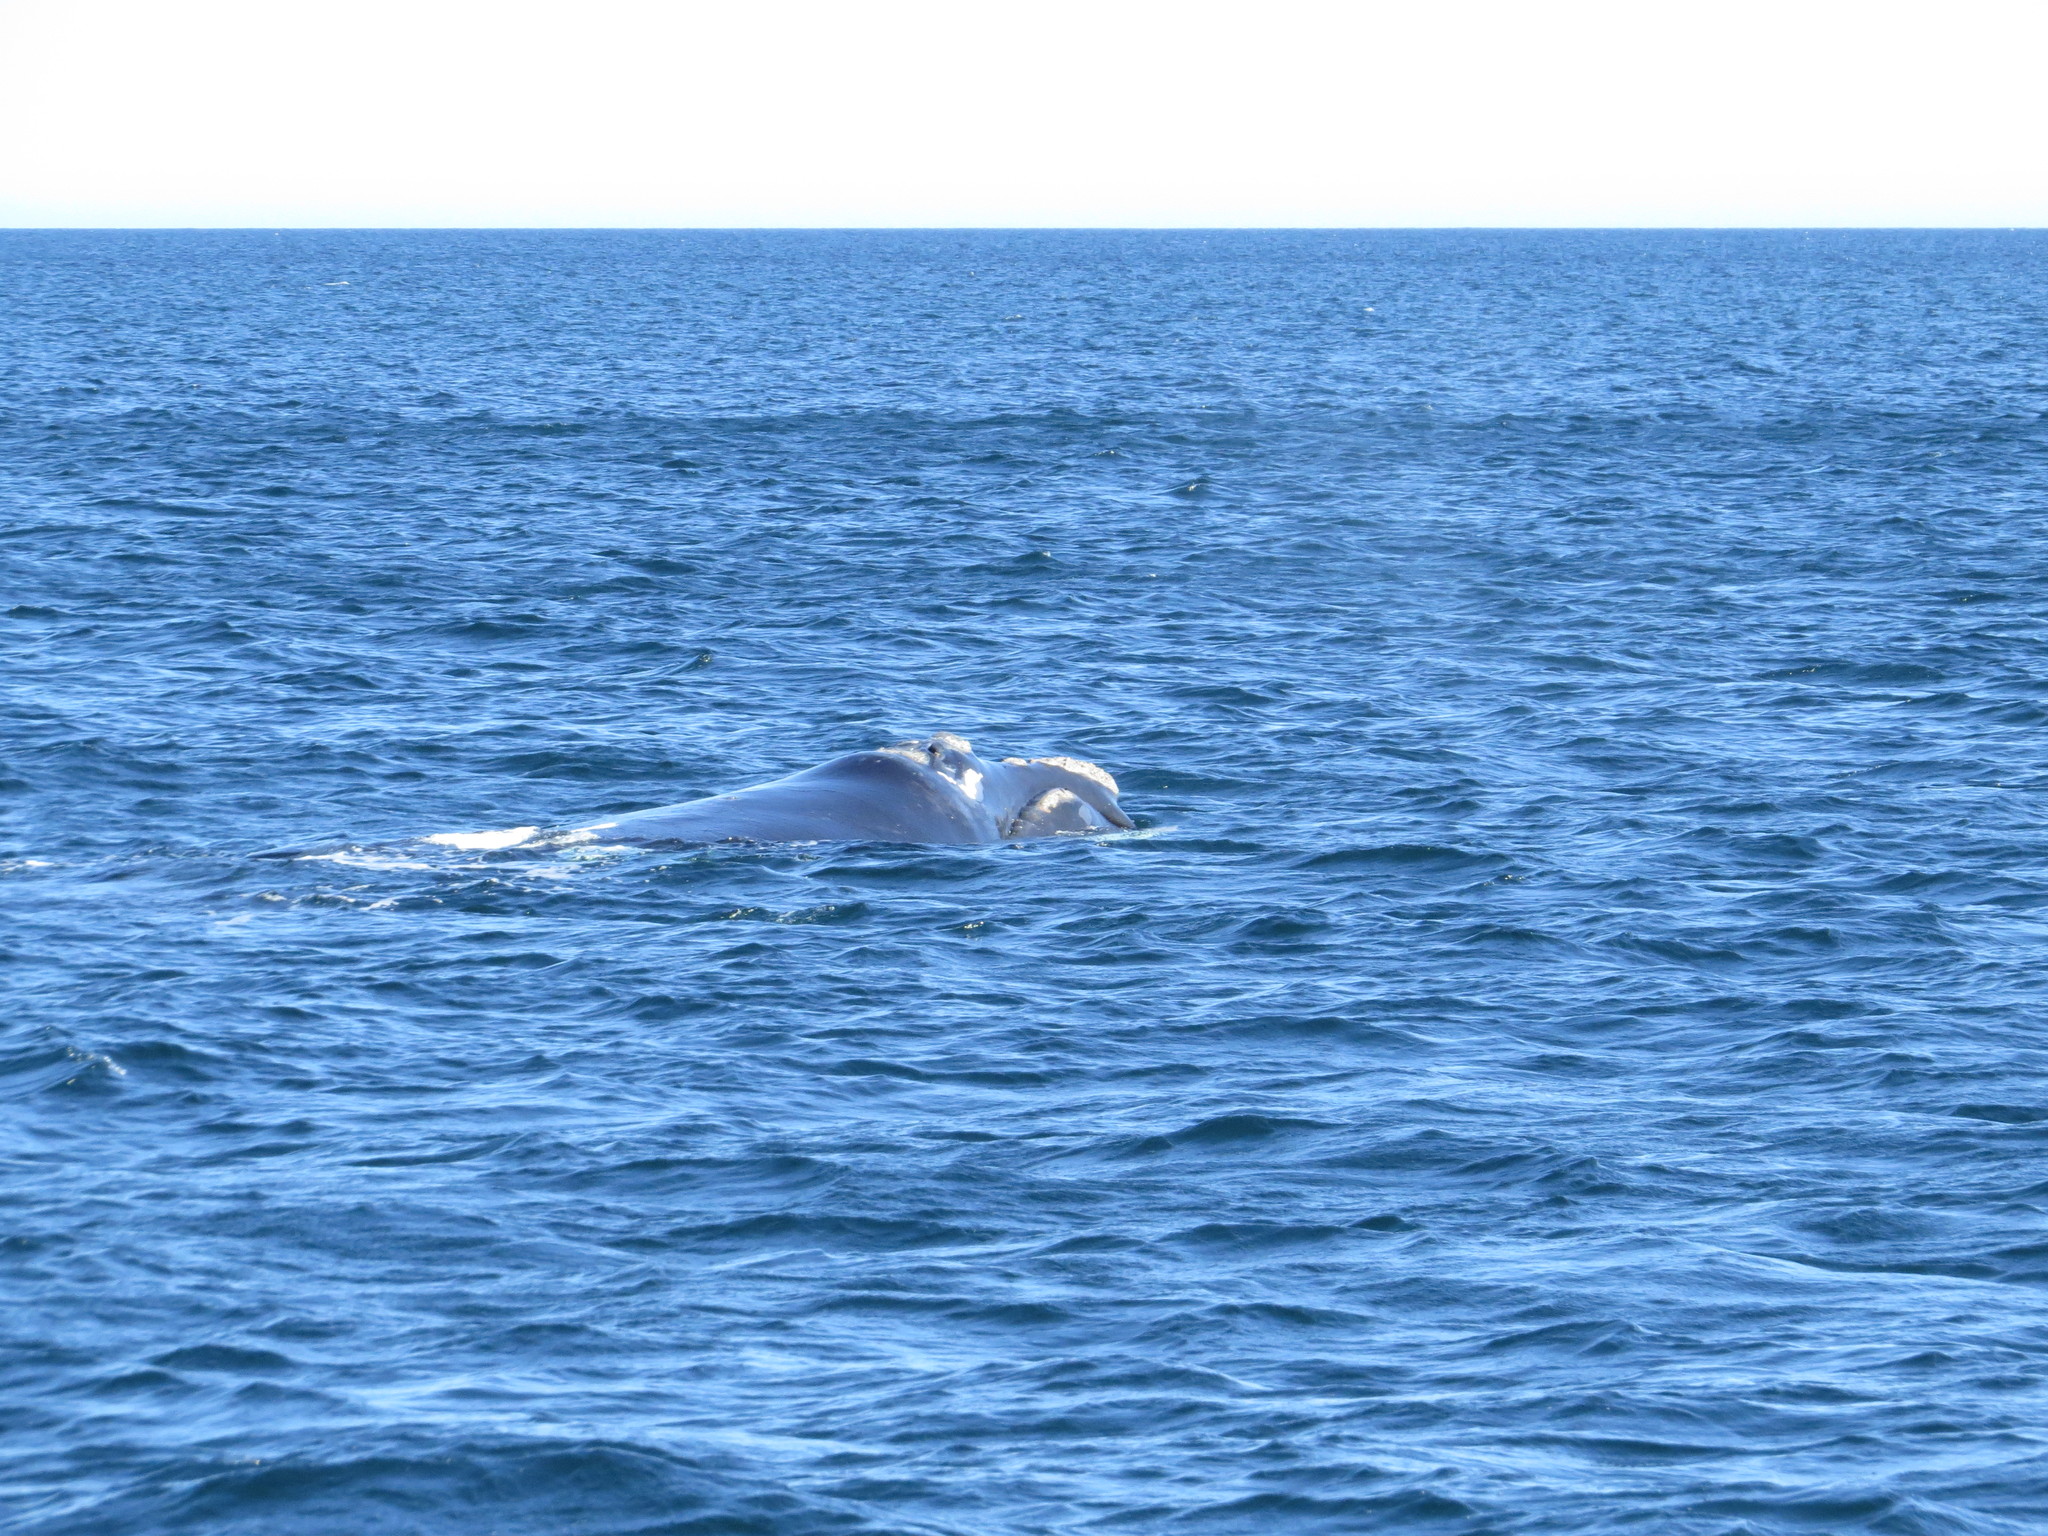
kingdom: Animalia
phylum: Chordata
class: Mammalia
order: Cetacea
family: Balaenidae
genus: Eubalaena
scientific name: Eubalaena australis
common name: Southern right whale
